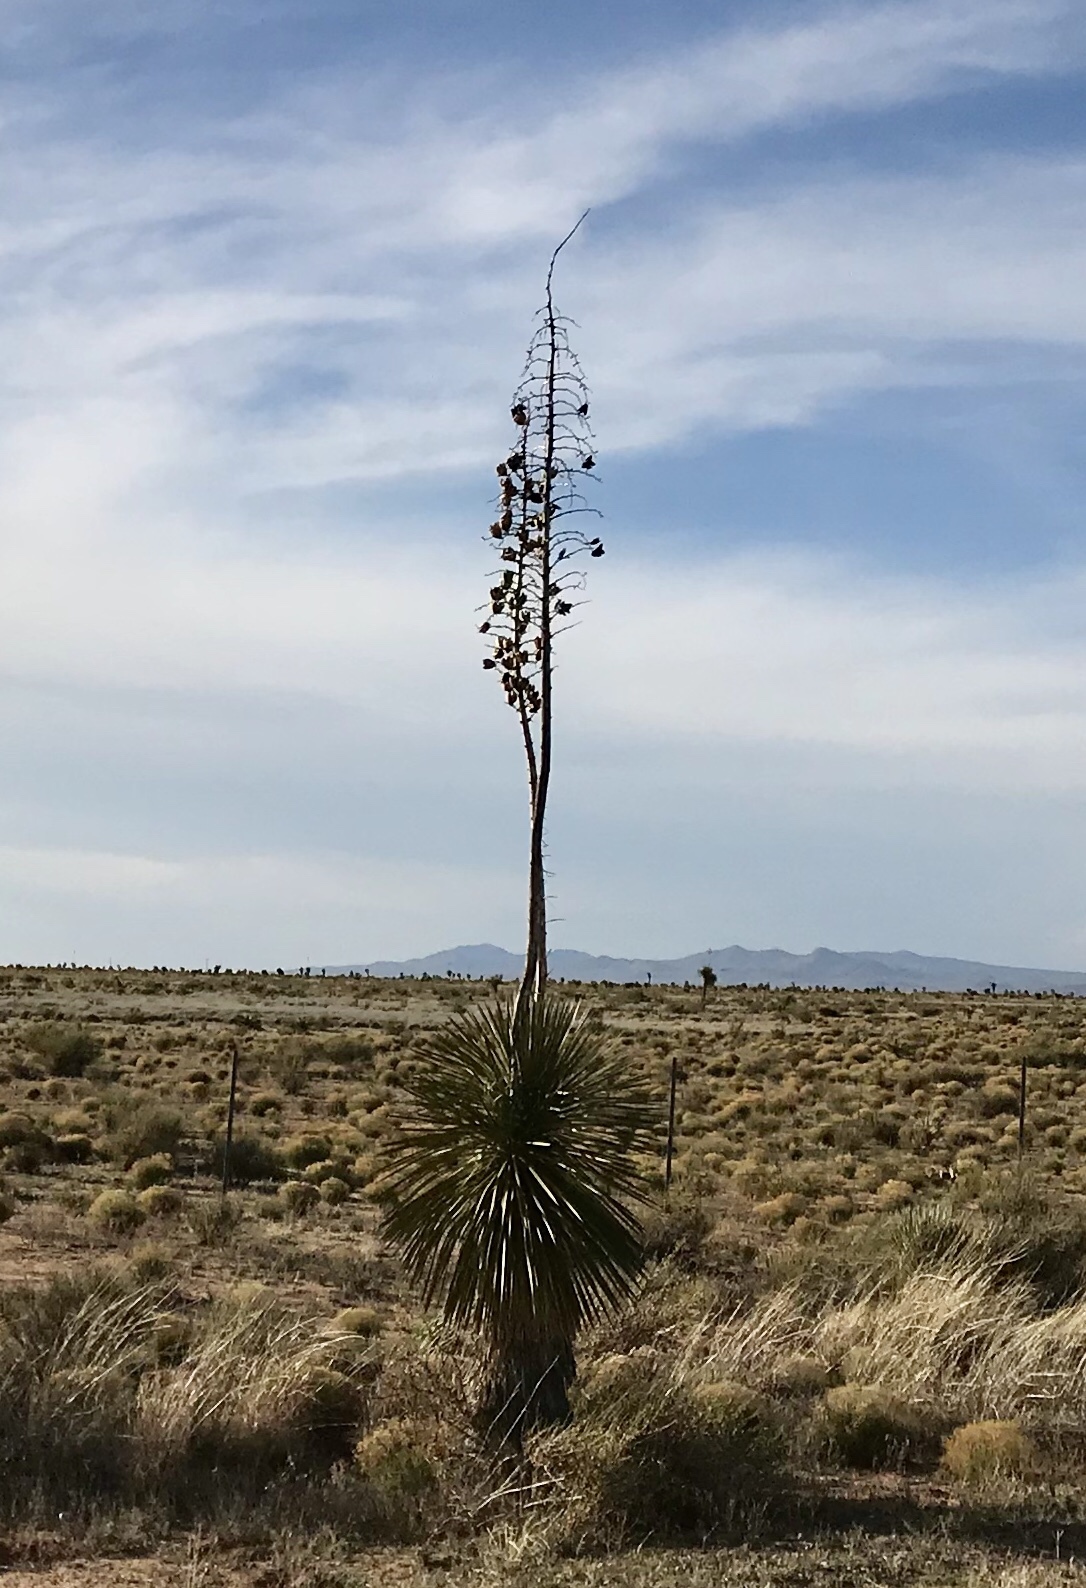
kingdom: Plantae
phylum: Tracheophyta
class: Liliopsida
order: Asparagales
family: Asparagaceae
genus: Yucca
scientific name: Yucca elata
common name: Palmella
